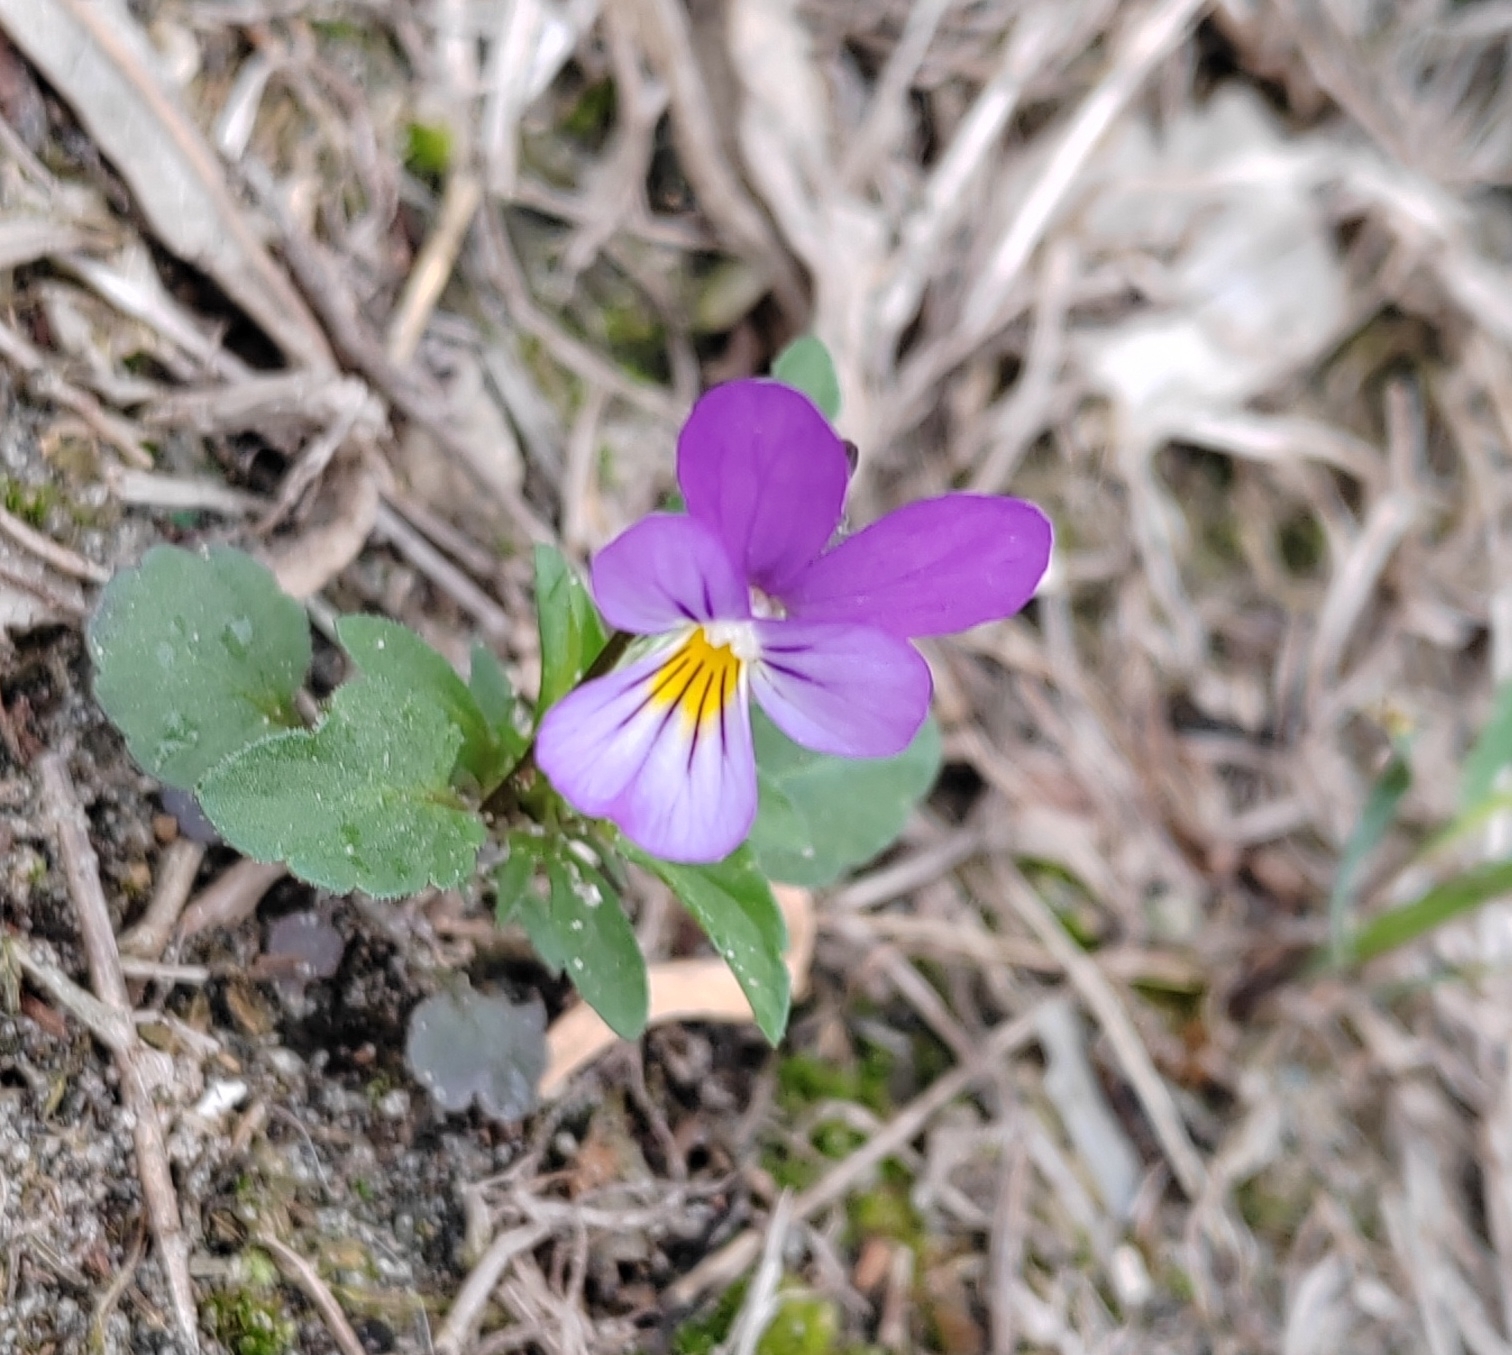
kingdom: Plantae
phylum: Tracheophyta
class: Magnoliopsida
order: Malpighiales
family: Violaceae
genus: Viola
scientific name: Viola tricolor
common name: Pansy
